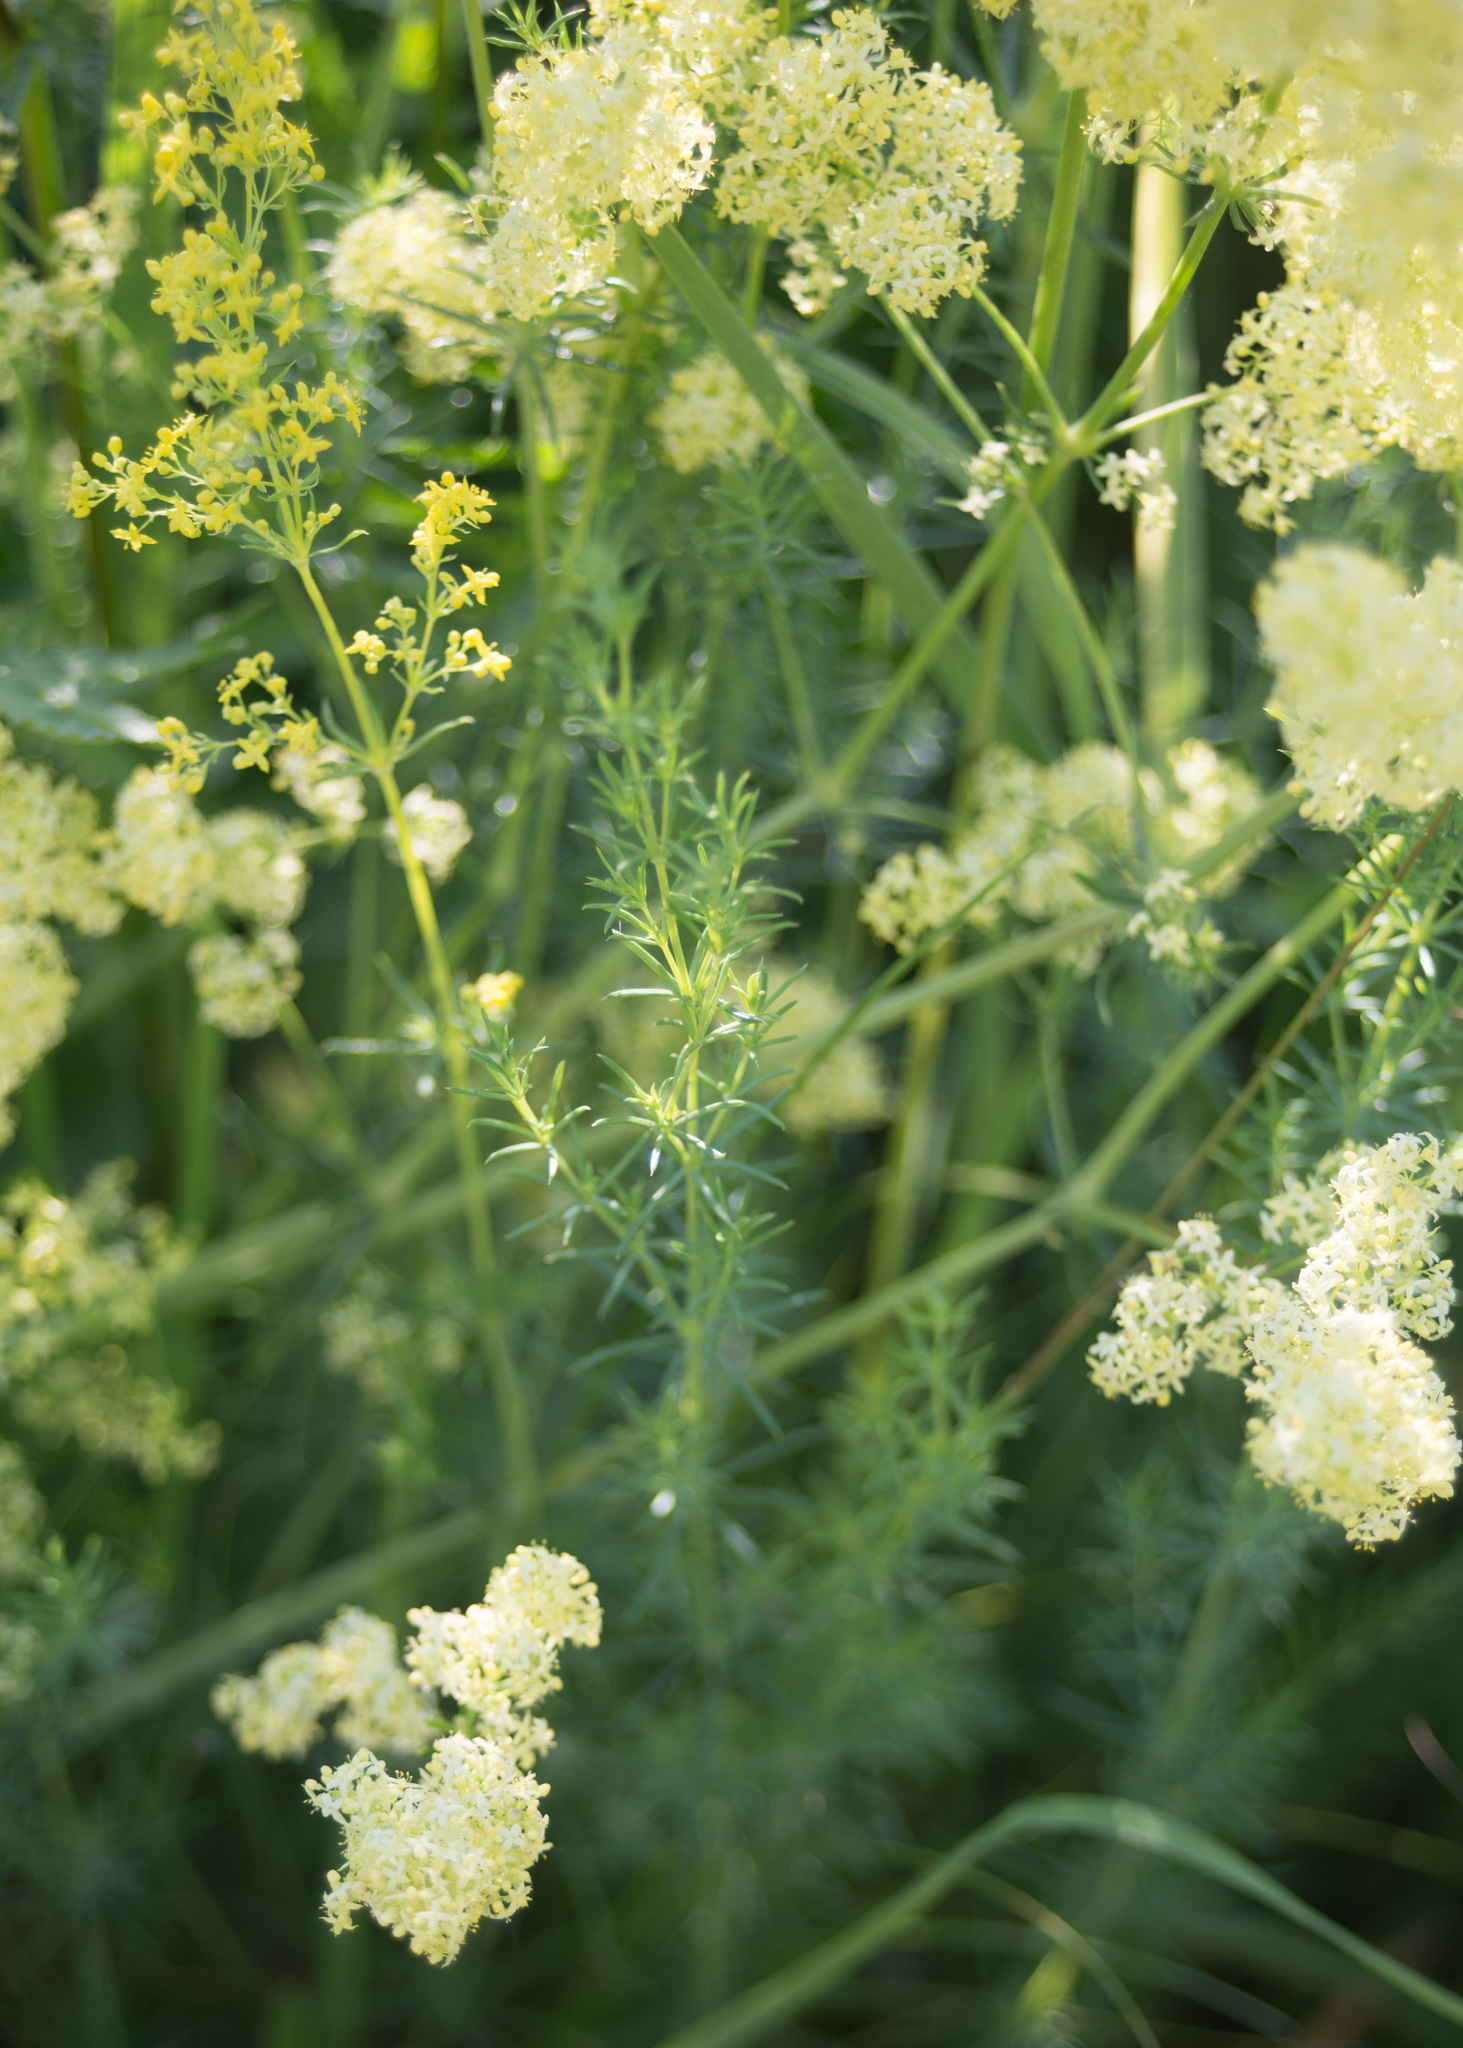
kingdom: Plantae
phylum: Tracheophyta
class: Magnoliopsida
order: Gentianales
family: Rubiaceae
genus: Galium
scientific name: Galium pomeranicum
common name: Bedstraw
